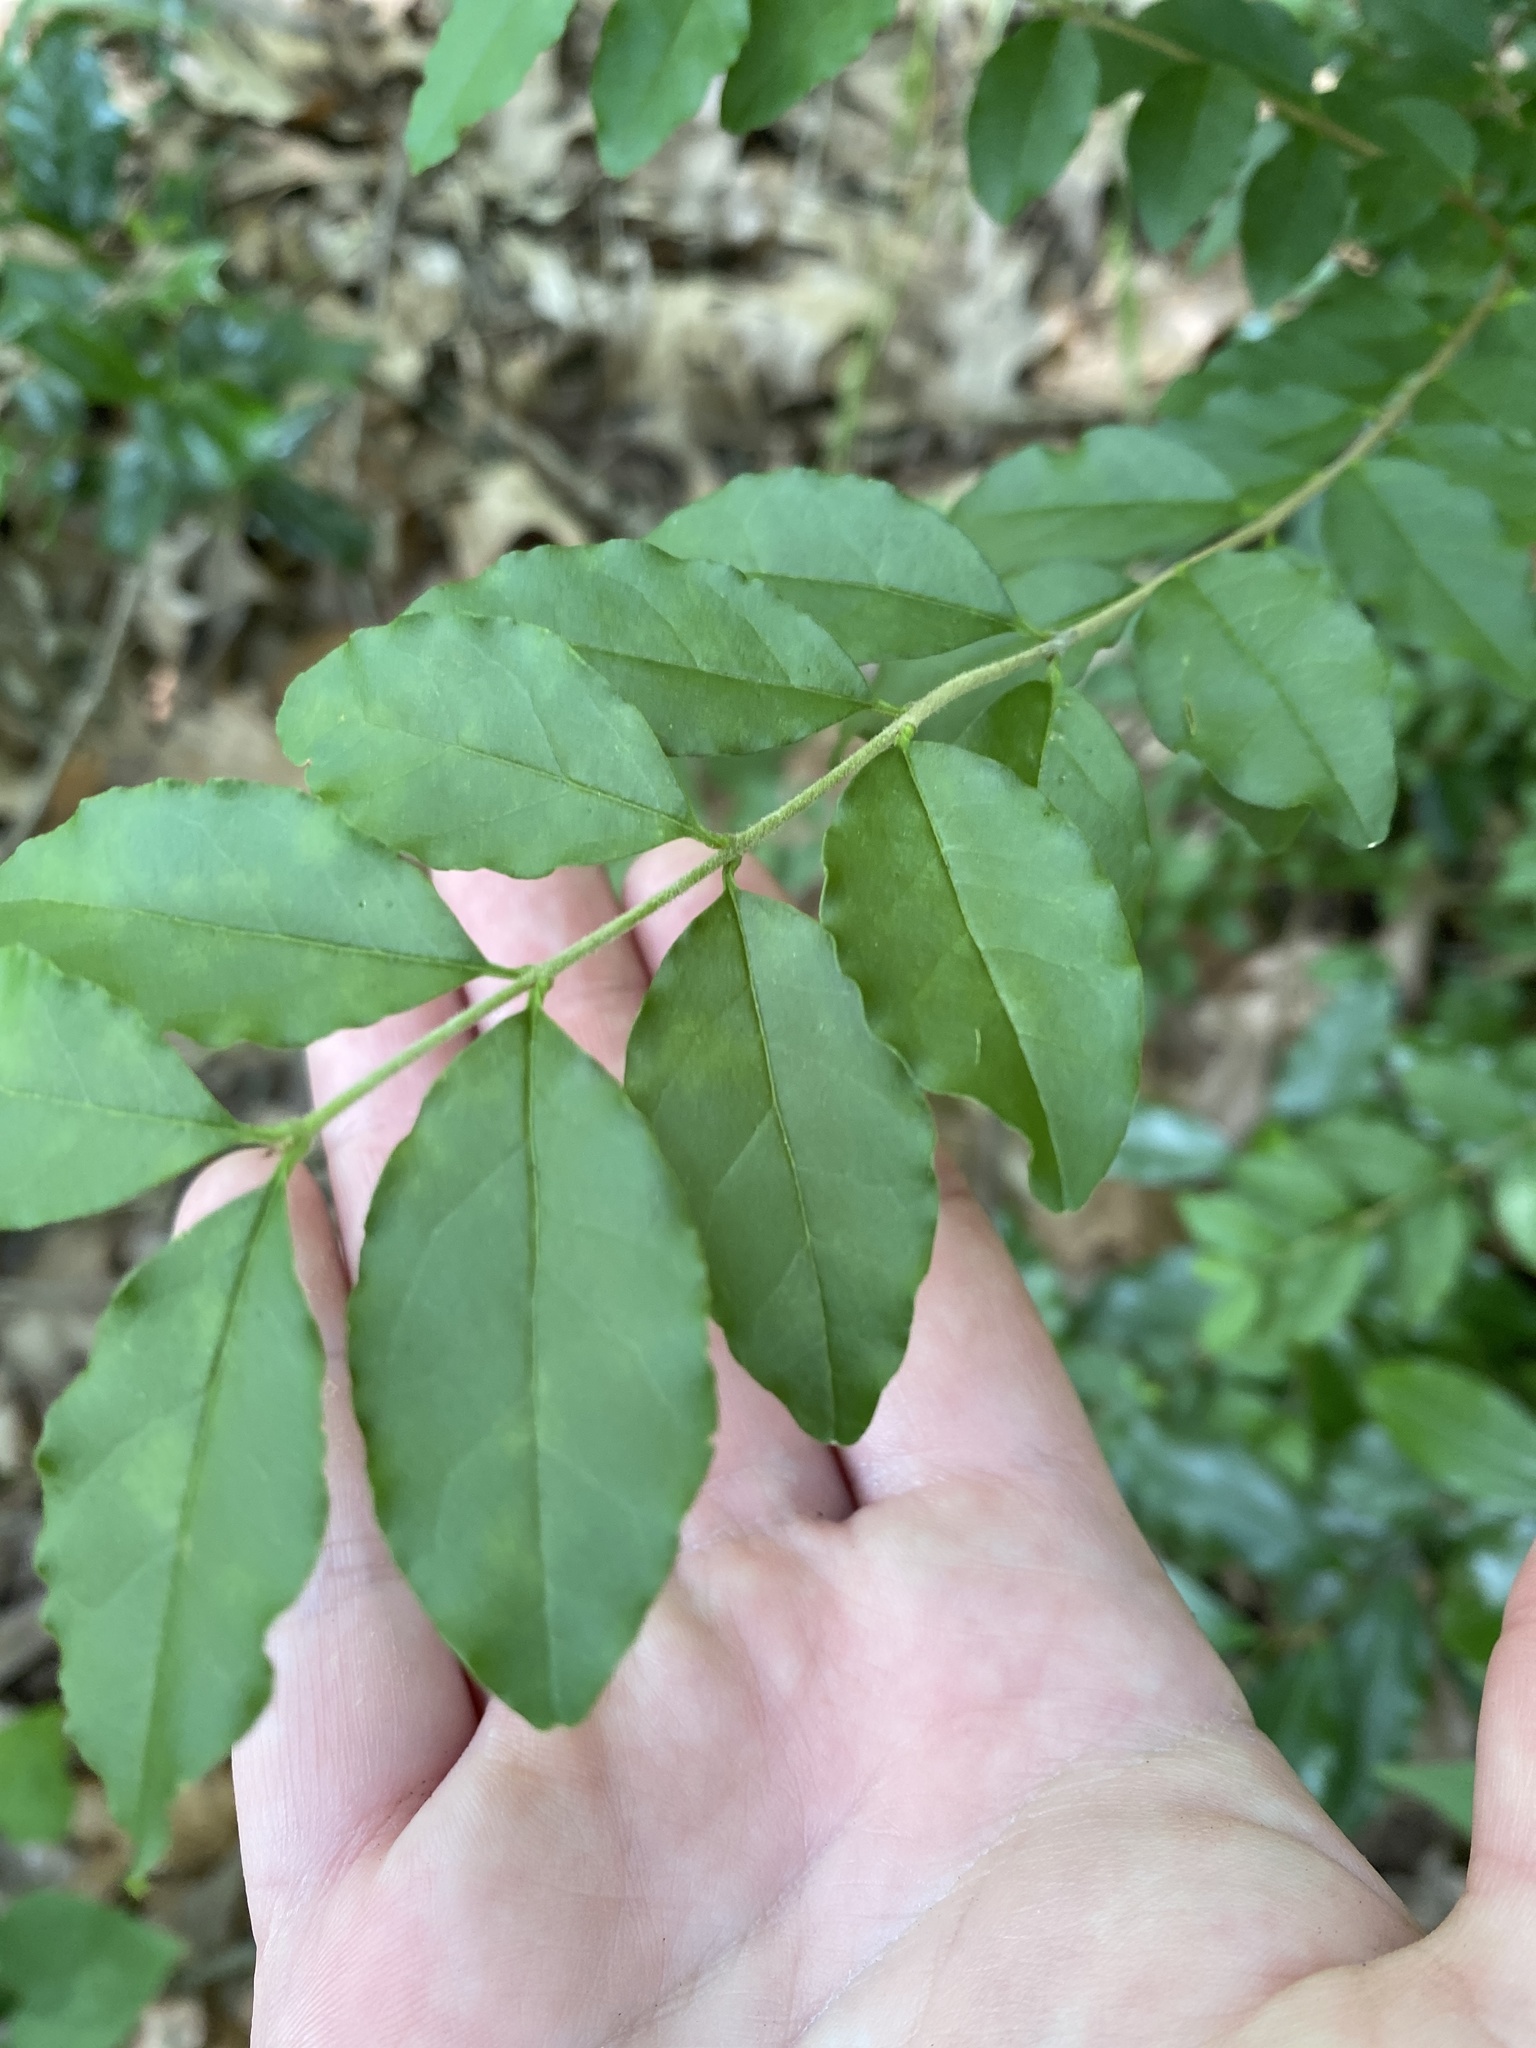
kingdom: Plantae
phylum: Tracheophyta
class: Magnoliopsida
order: Lamiales
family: Oleaceae
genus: Ligustrum
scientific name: Ligustrum sinense
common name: Chinese privet
